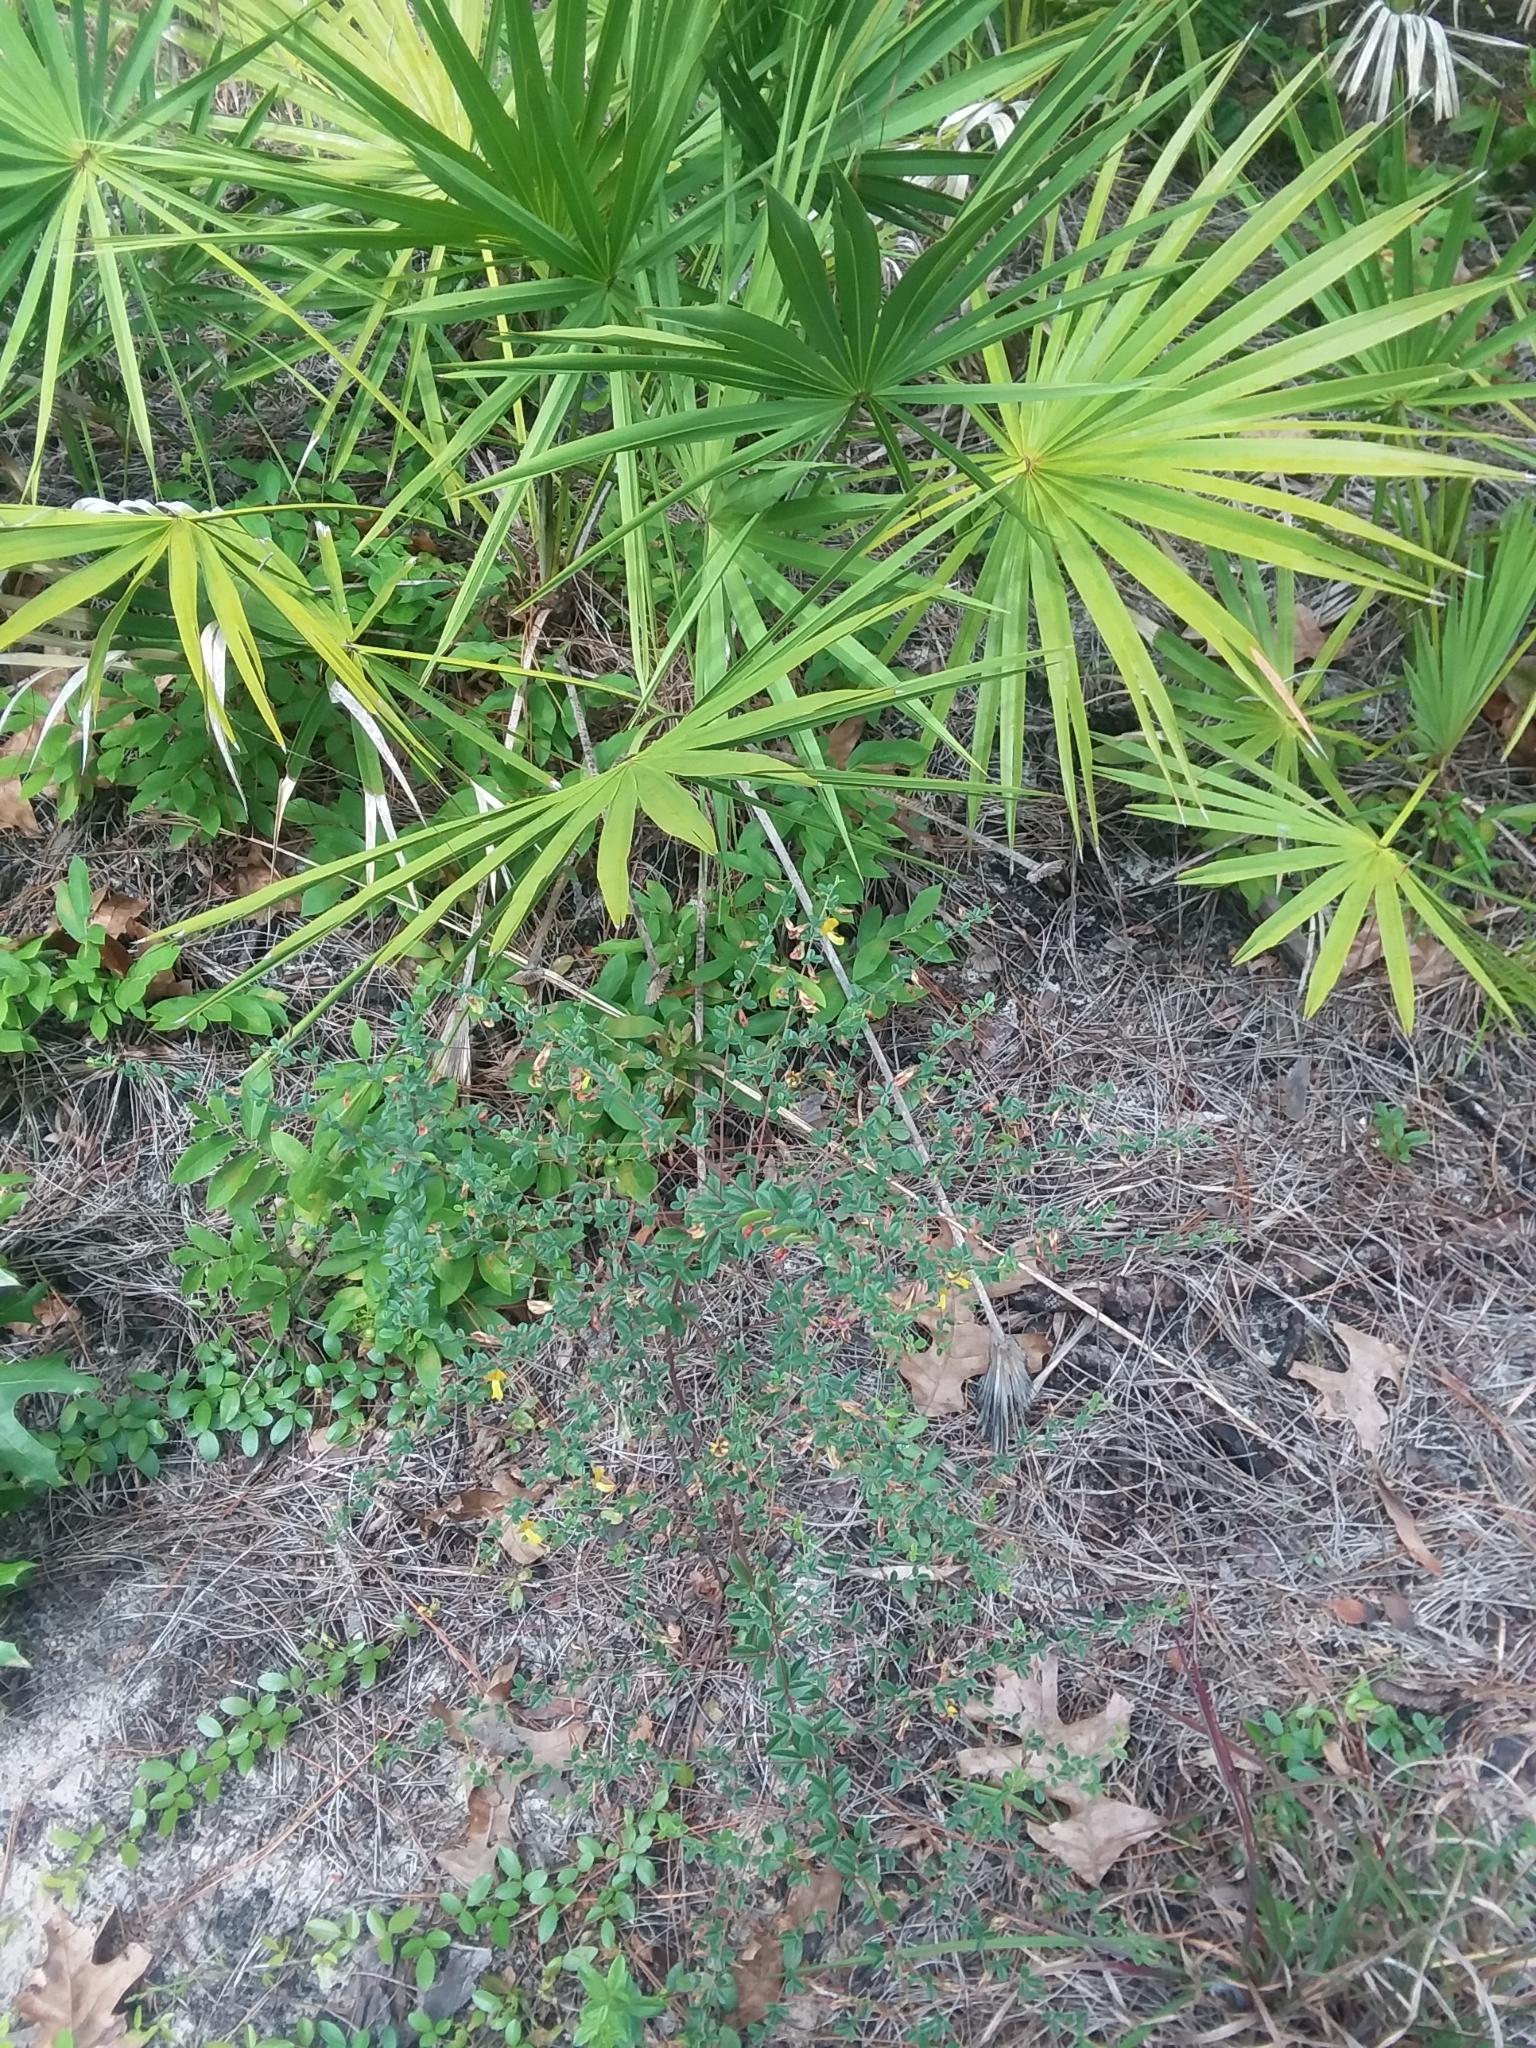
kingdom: Plantae
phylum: Tracheophyta
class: Magnoliopsida
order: Fabales
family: Fabaceae
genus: Rhynchosia
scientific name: Rhynchosia cytisoides
